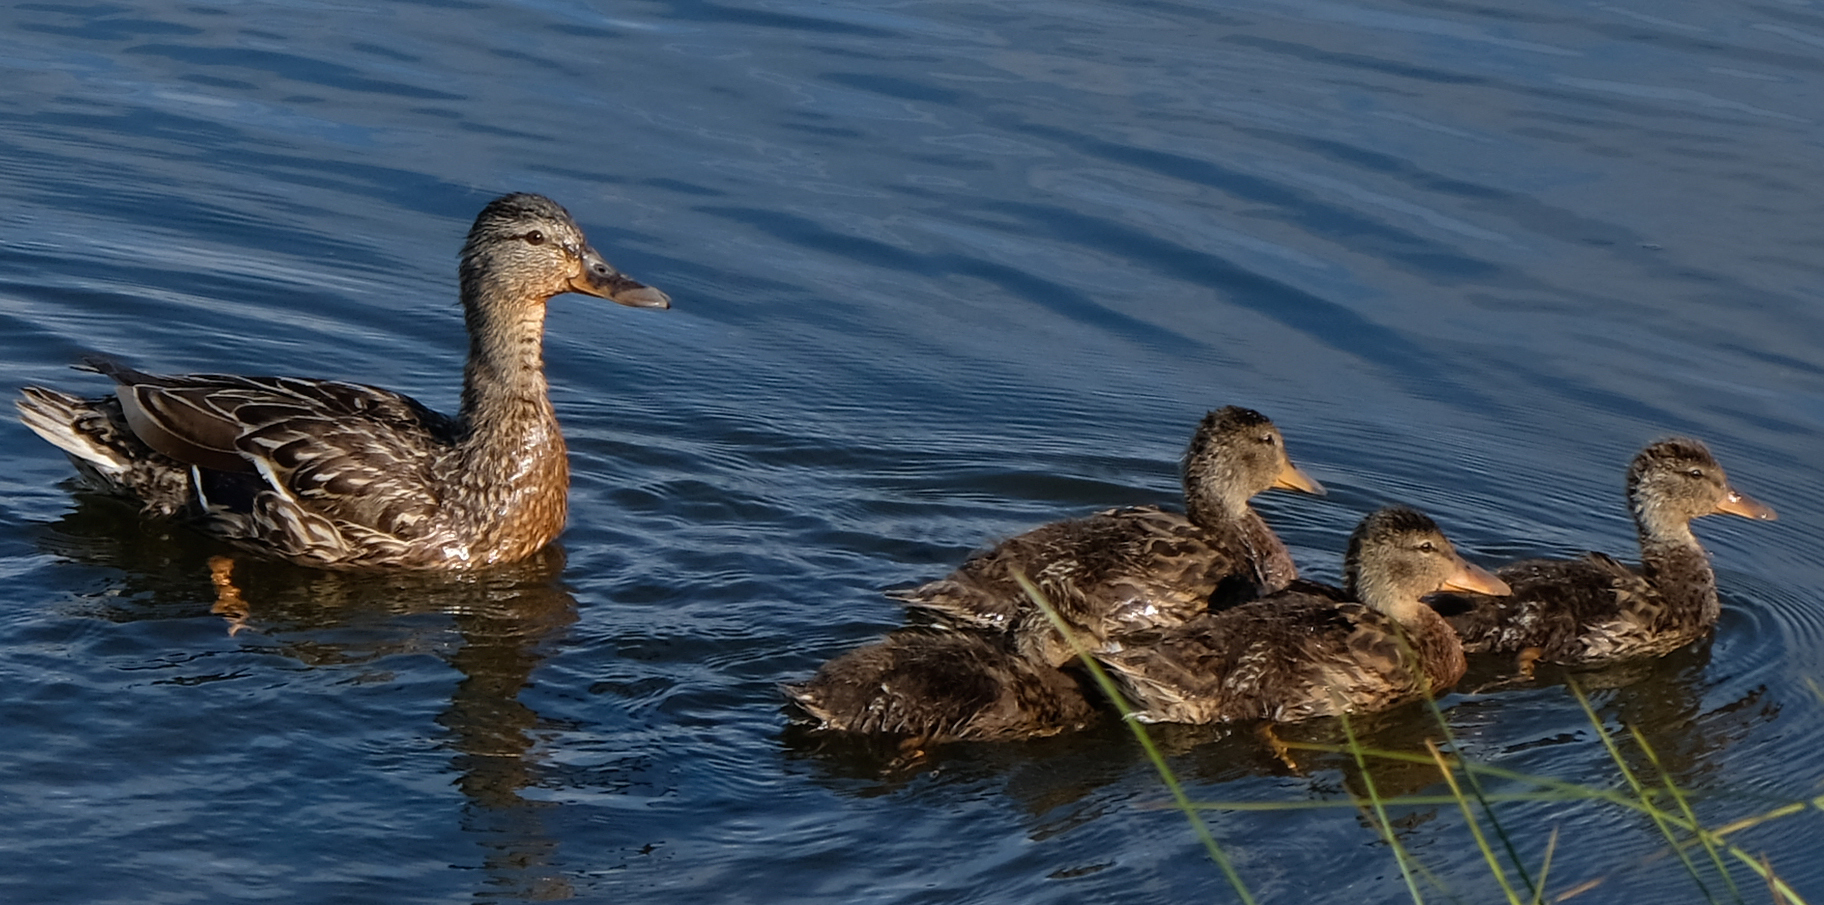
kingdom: Animalia
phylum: Chordata
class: Aves
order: Anseriformes
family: Anatidae
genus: Anas
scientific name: Anas platyrhynchos
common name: Mallard
